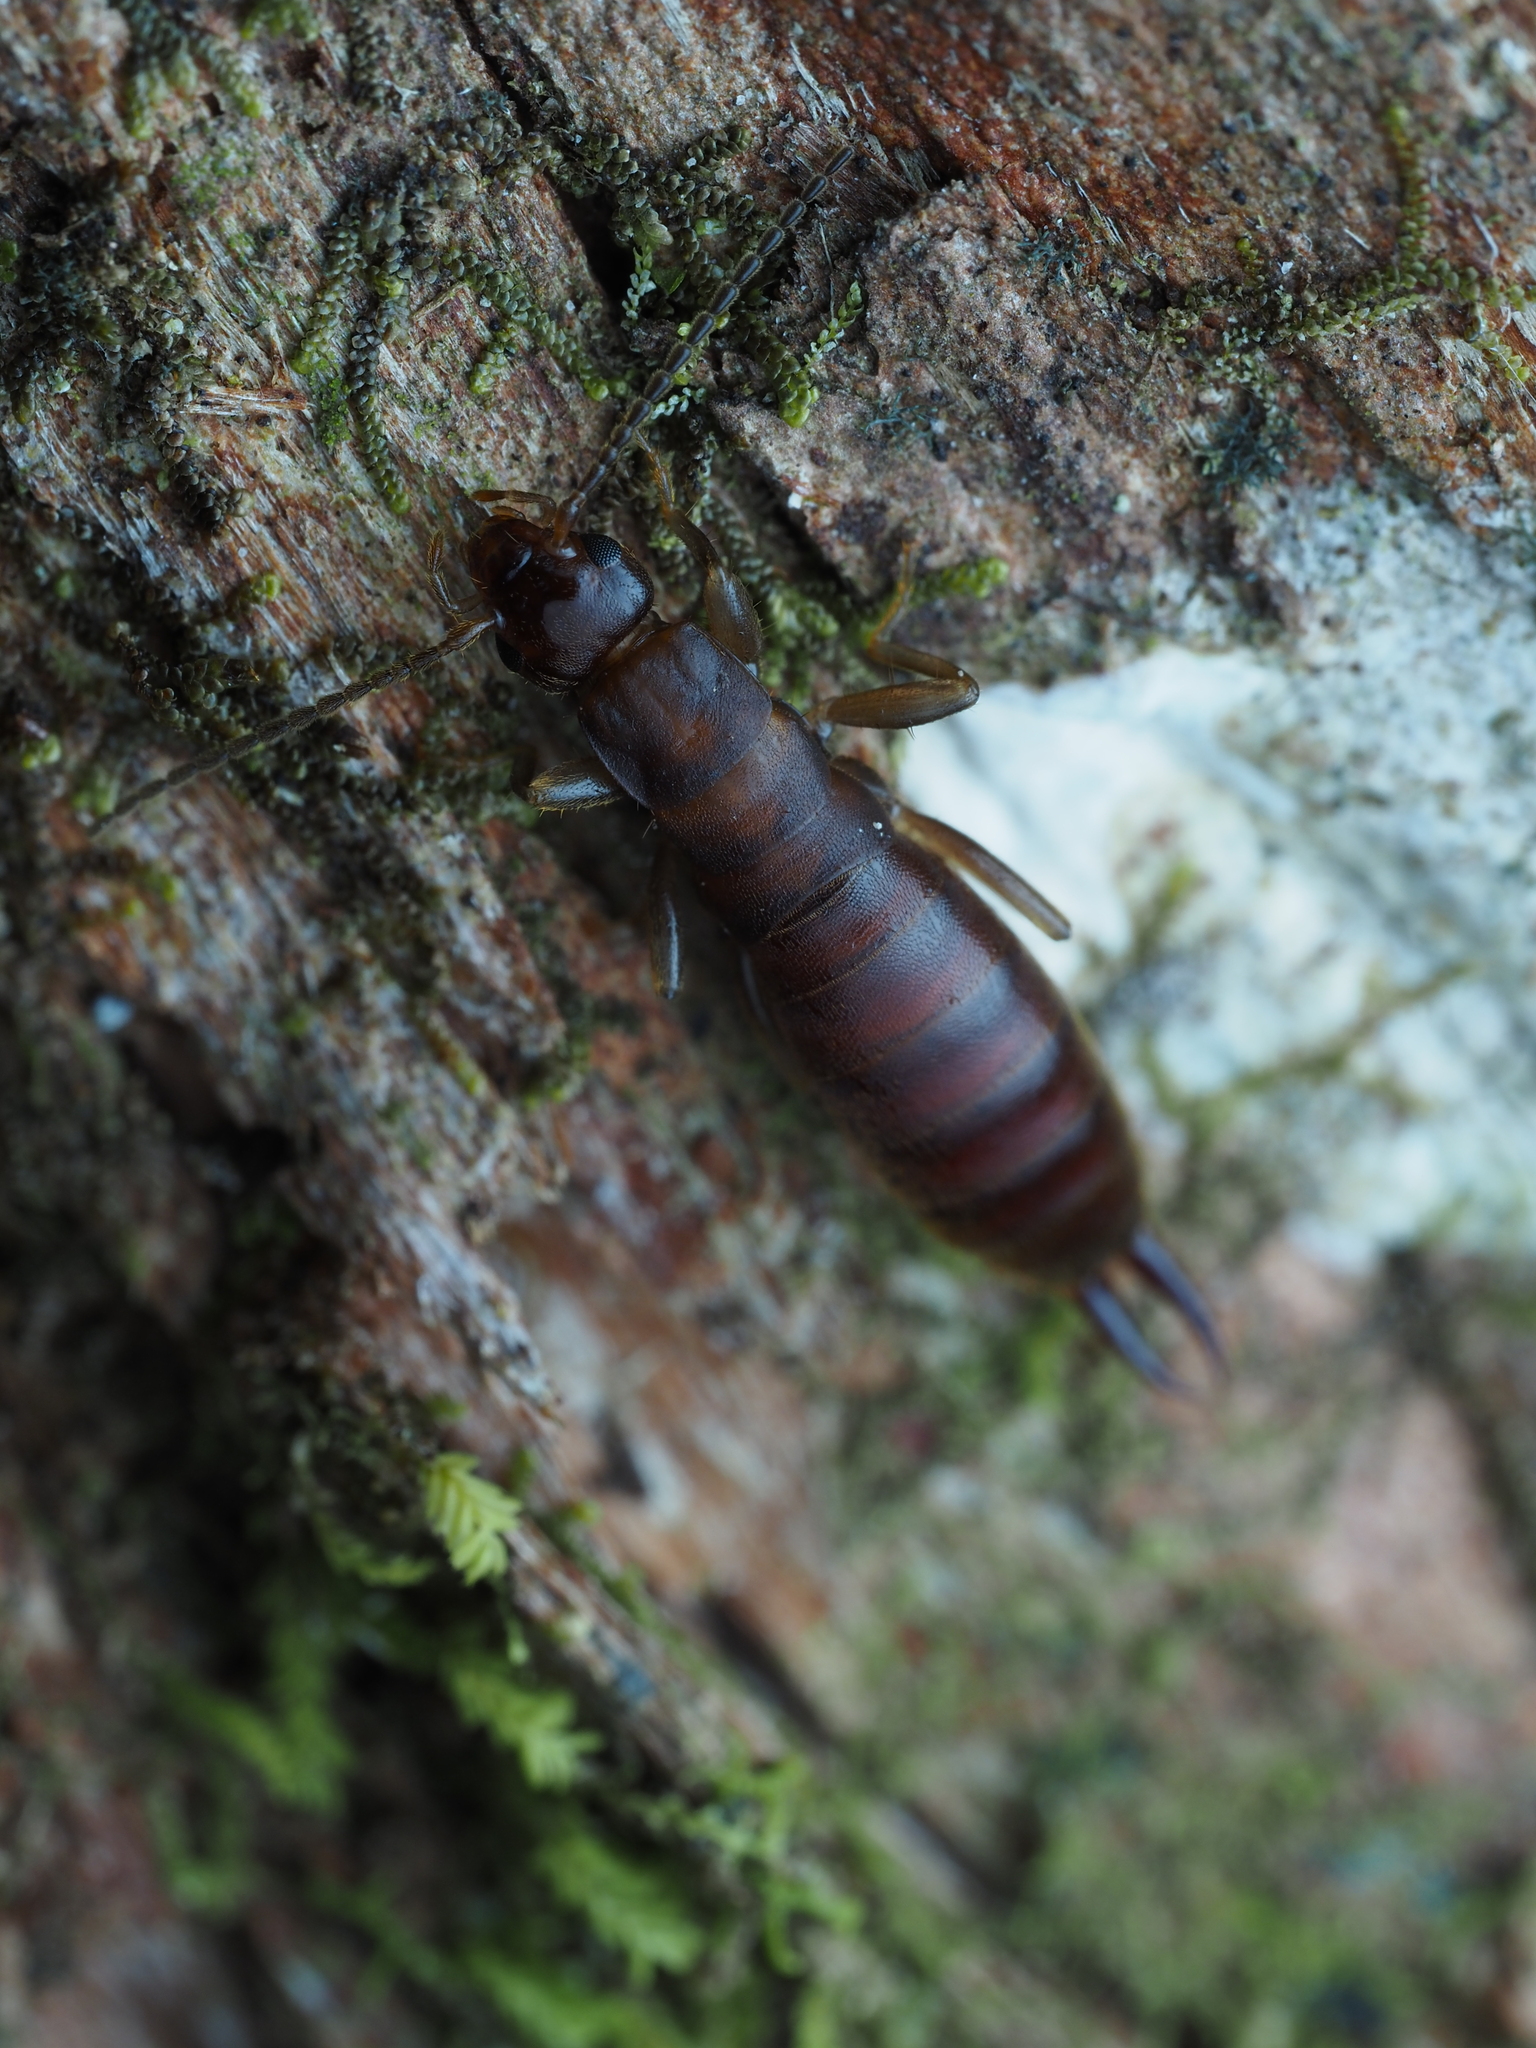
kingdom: Animalia
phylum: Arthropoda
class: Insecta
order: Dermaptera
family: Anisolabididae
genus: Parisolabis
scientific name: Parisolabis novaezeelandiae
